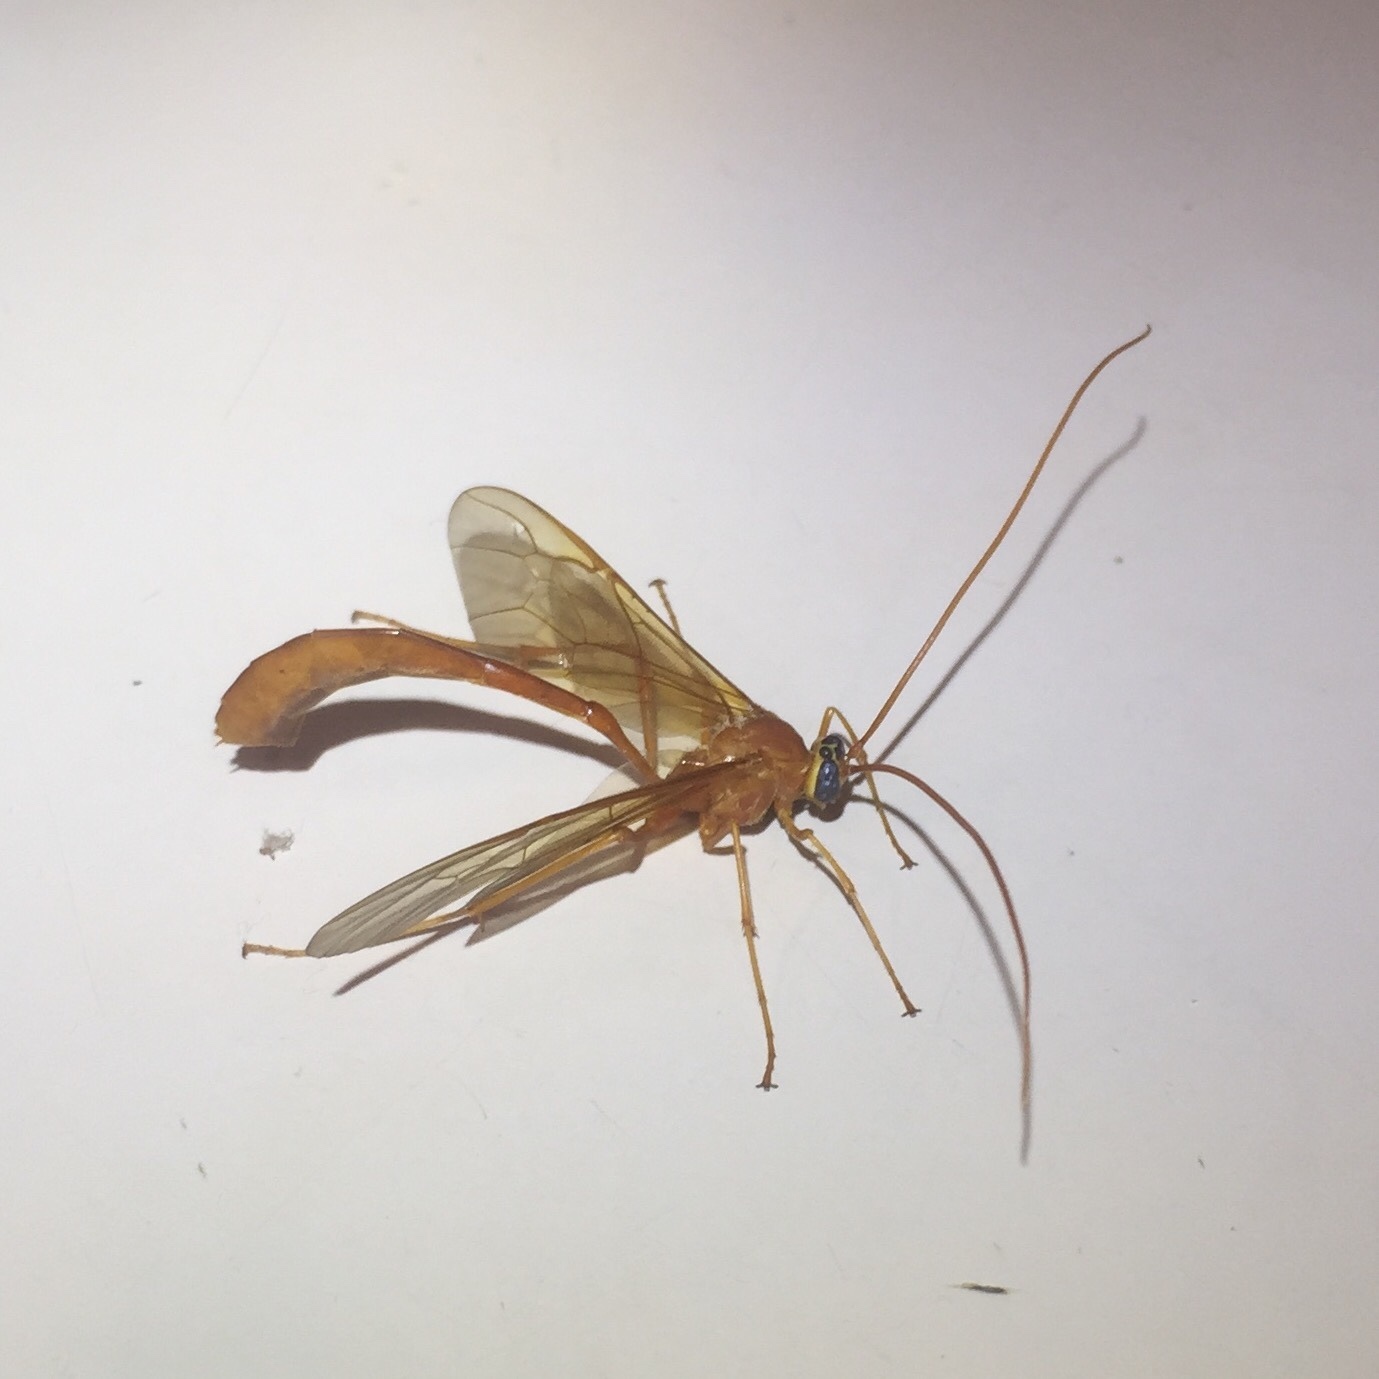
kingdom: Animalia
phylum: Arthropoda
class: Insecta
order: Hymenoptera
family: Ichneumonidae
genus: Ophion
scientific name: Ophion
